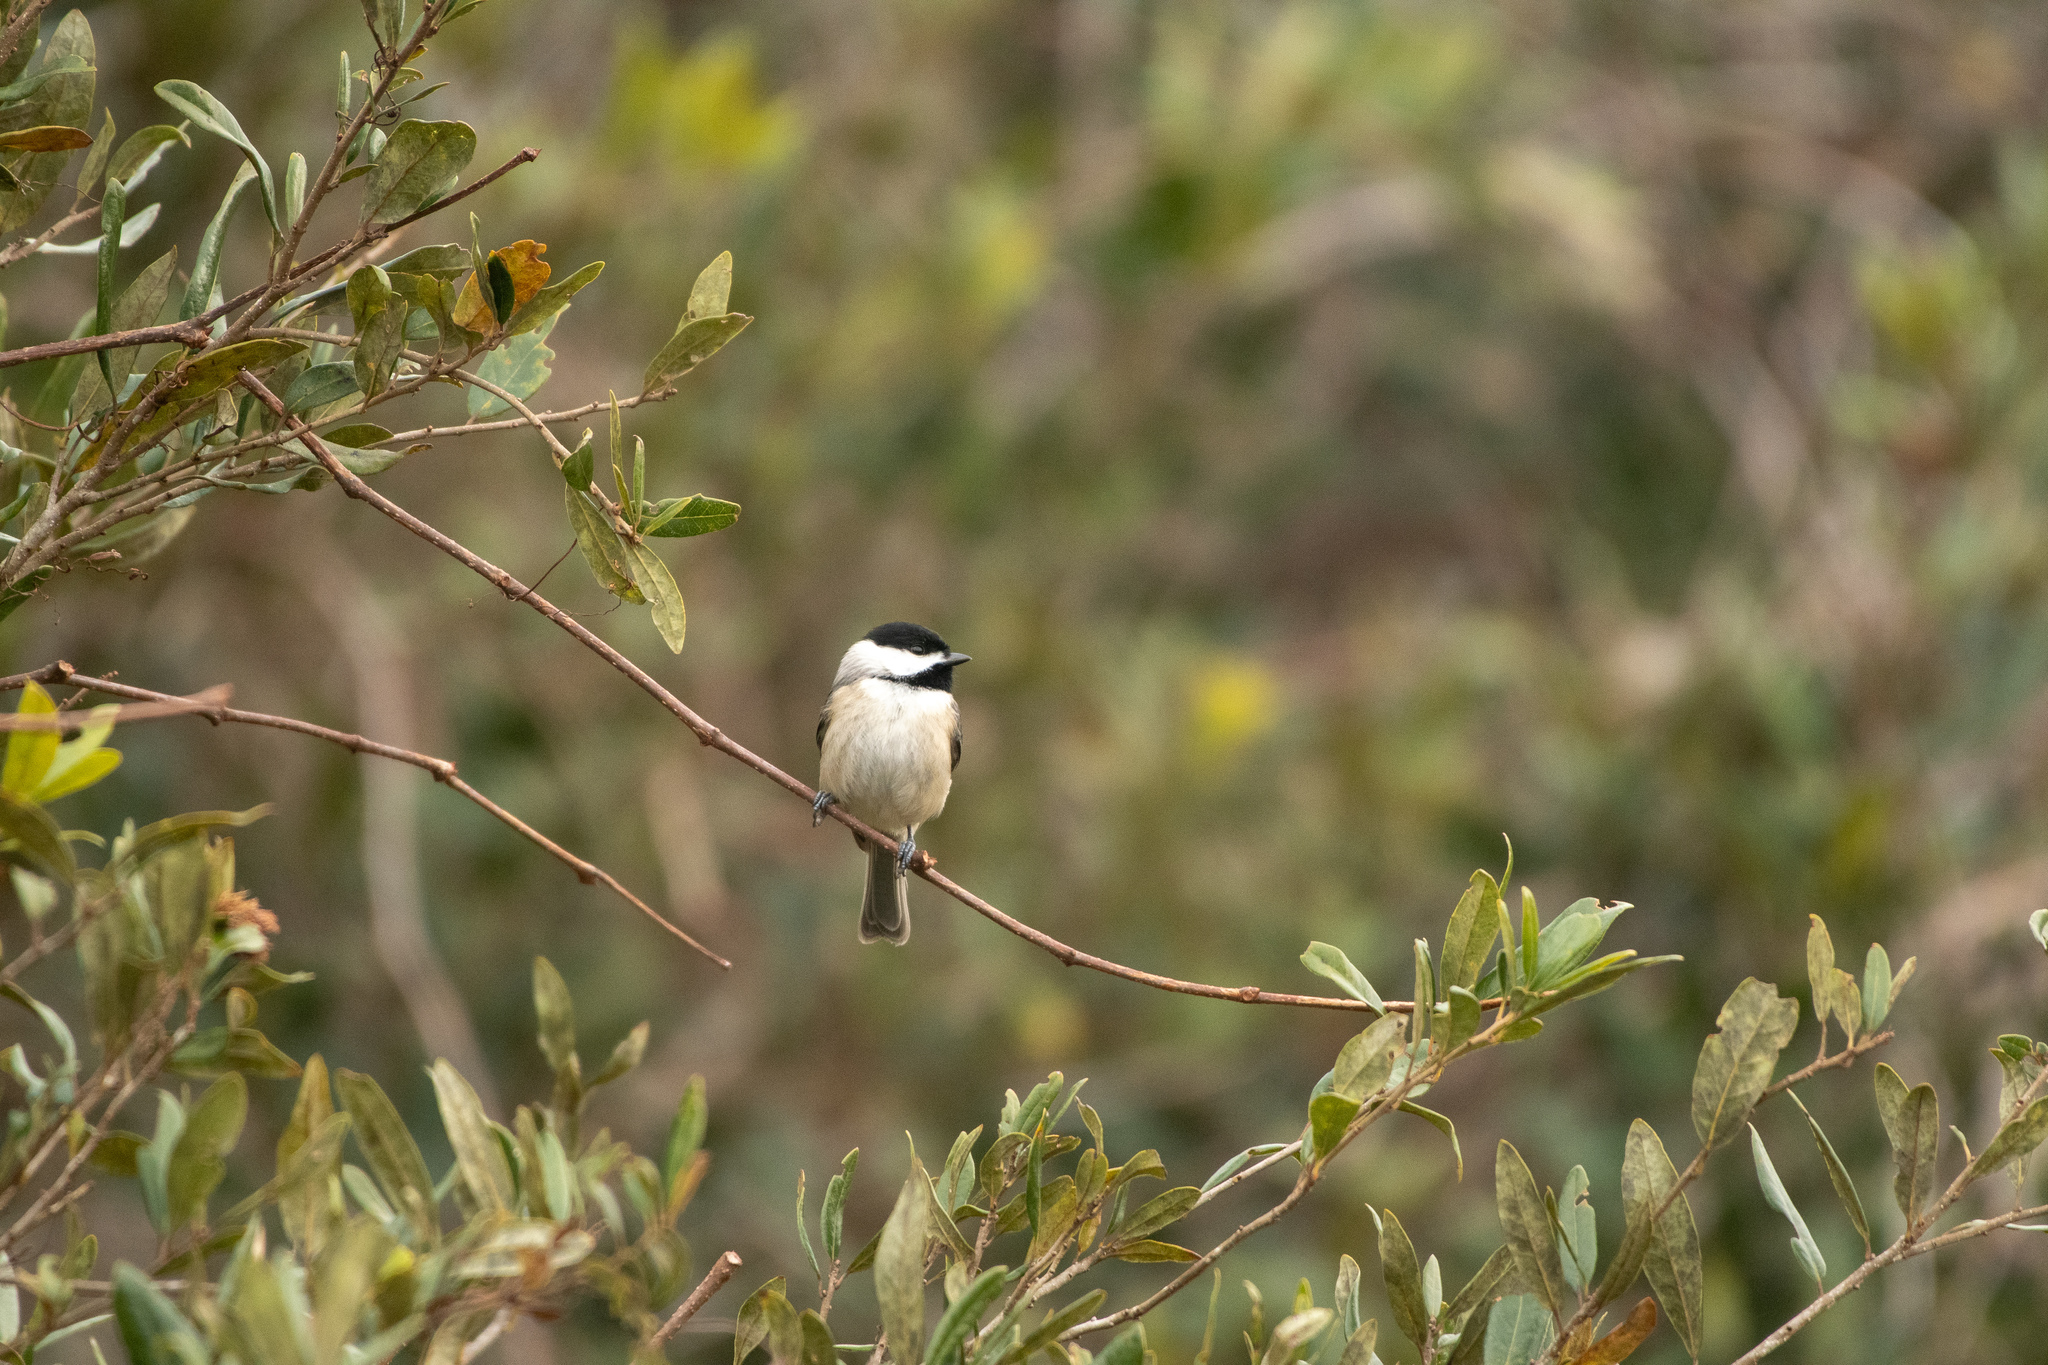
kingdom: Animalia
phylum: Chordata
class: Aves
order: Passeriformes
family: Paridae
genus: Poecile
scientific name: Poecile carolinensis
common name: Carolina chickadee
